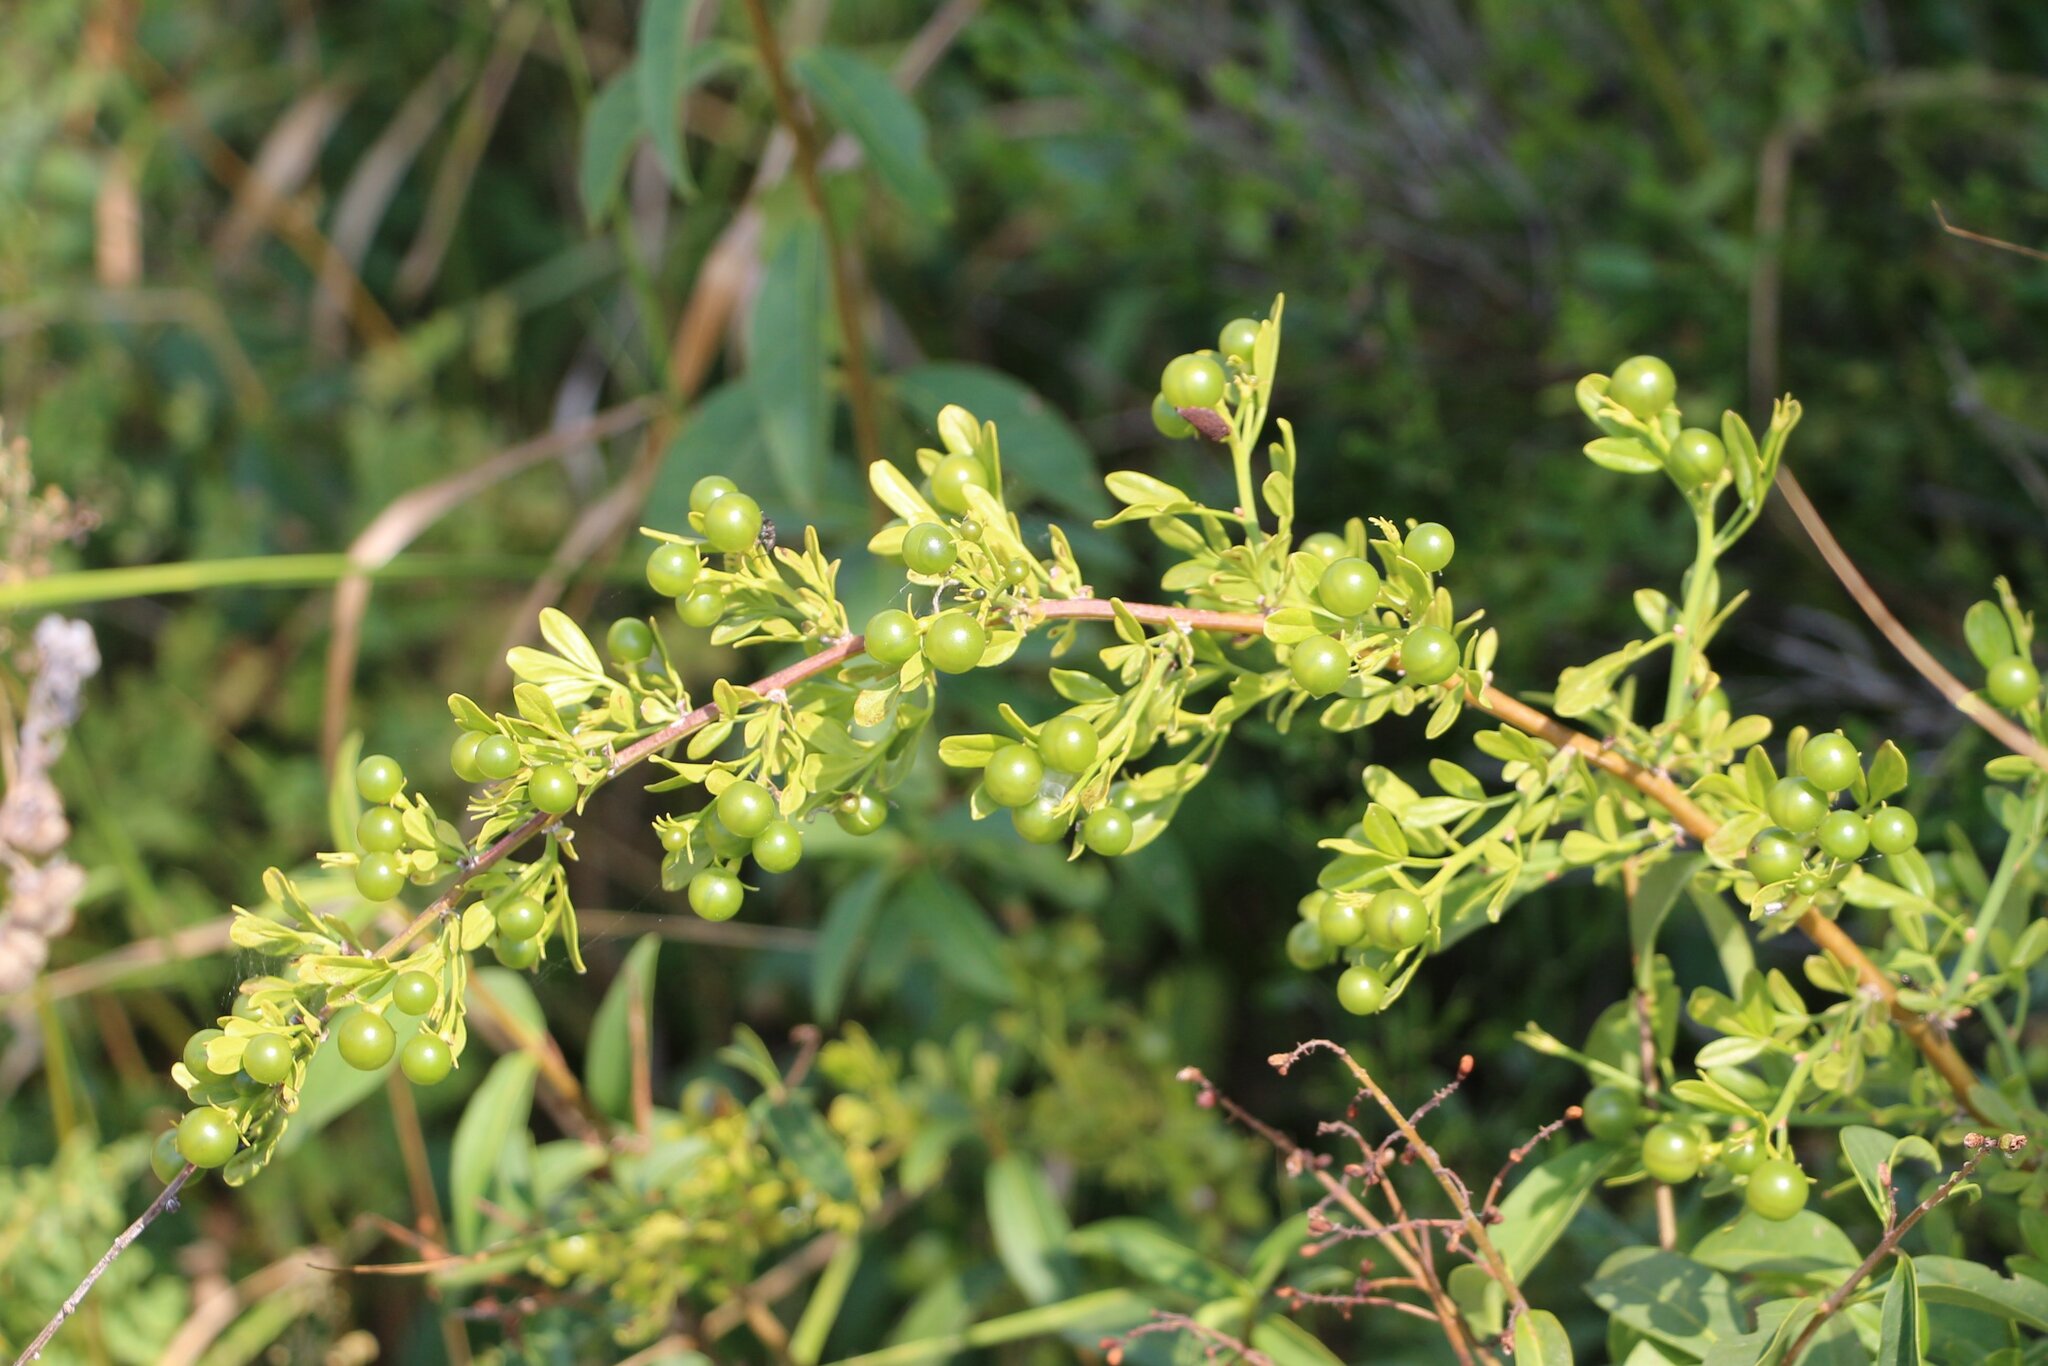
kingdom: Plantae
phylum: Tracheophyta
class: Magnoliopsida
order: Lamiales
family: Oleaceae
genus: Chrysojasminum
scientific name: Chrysojasminum fruticans
